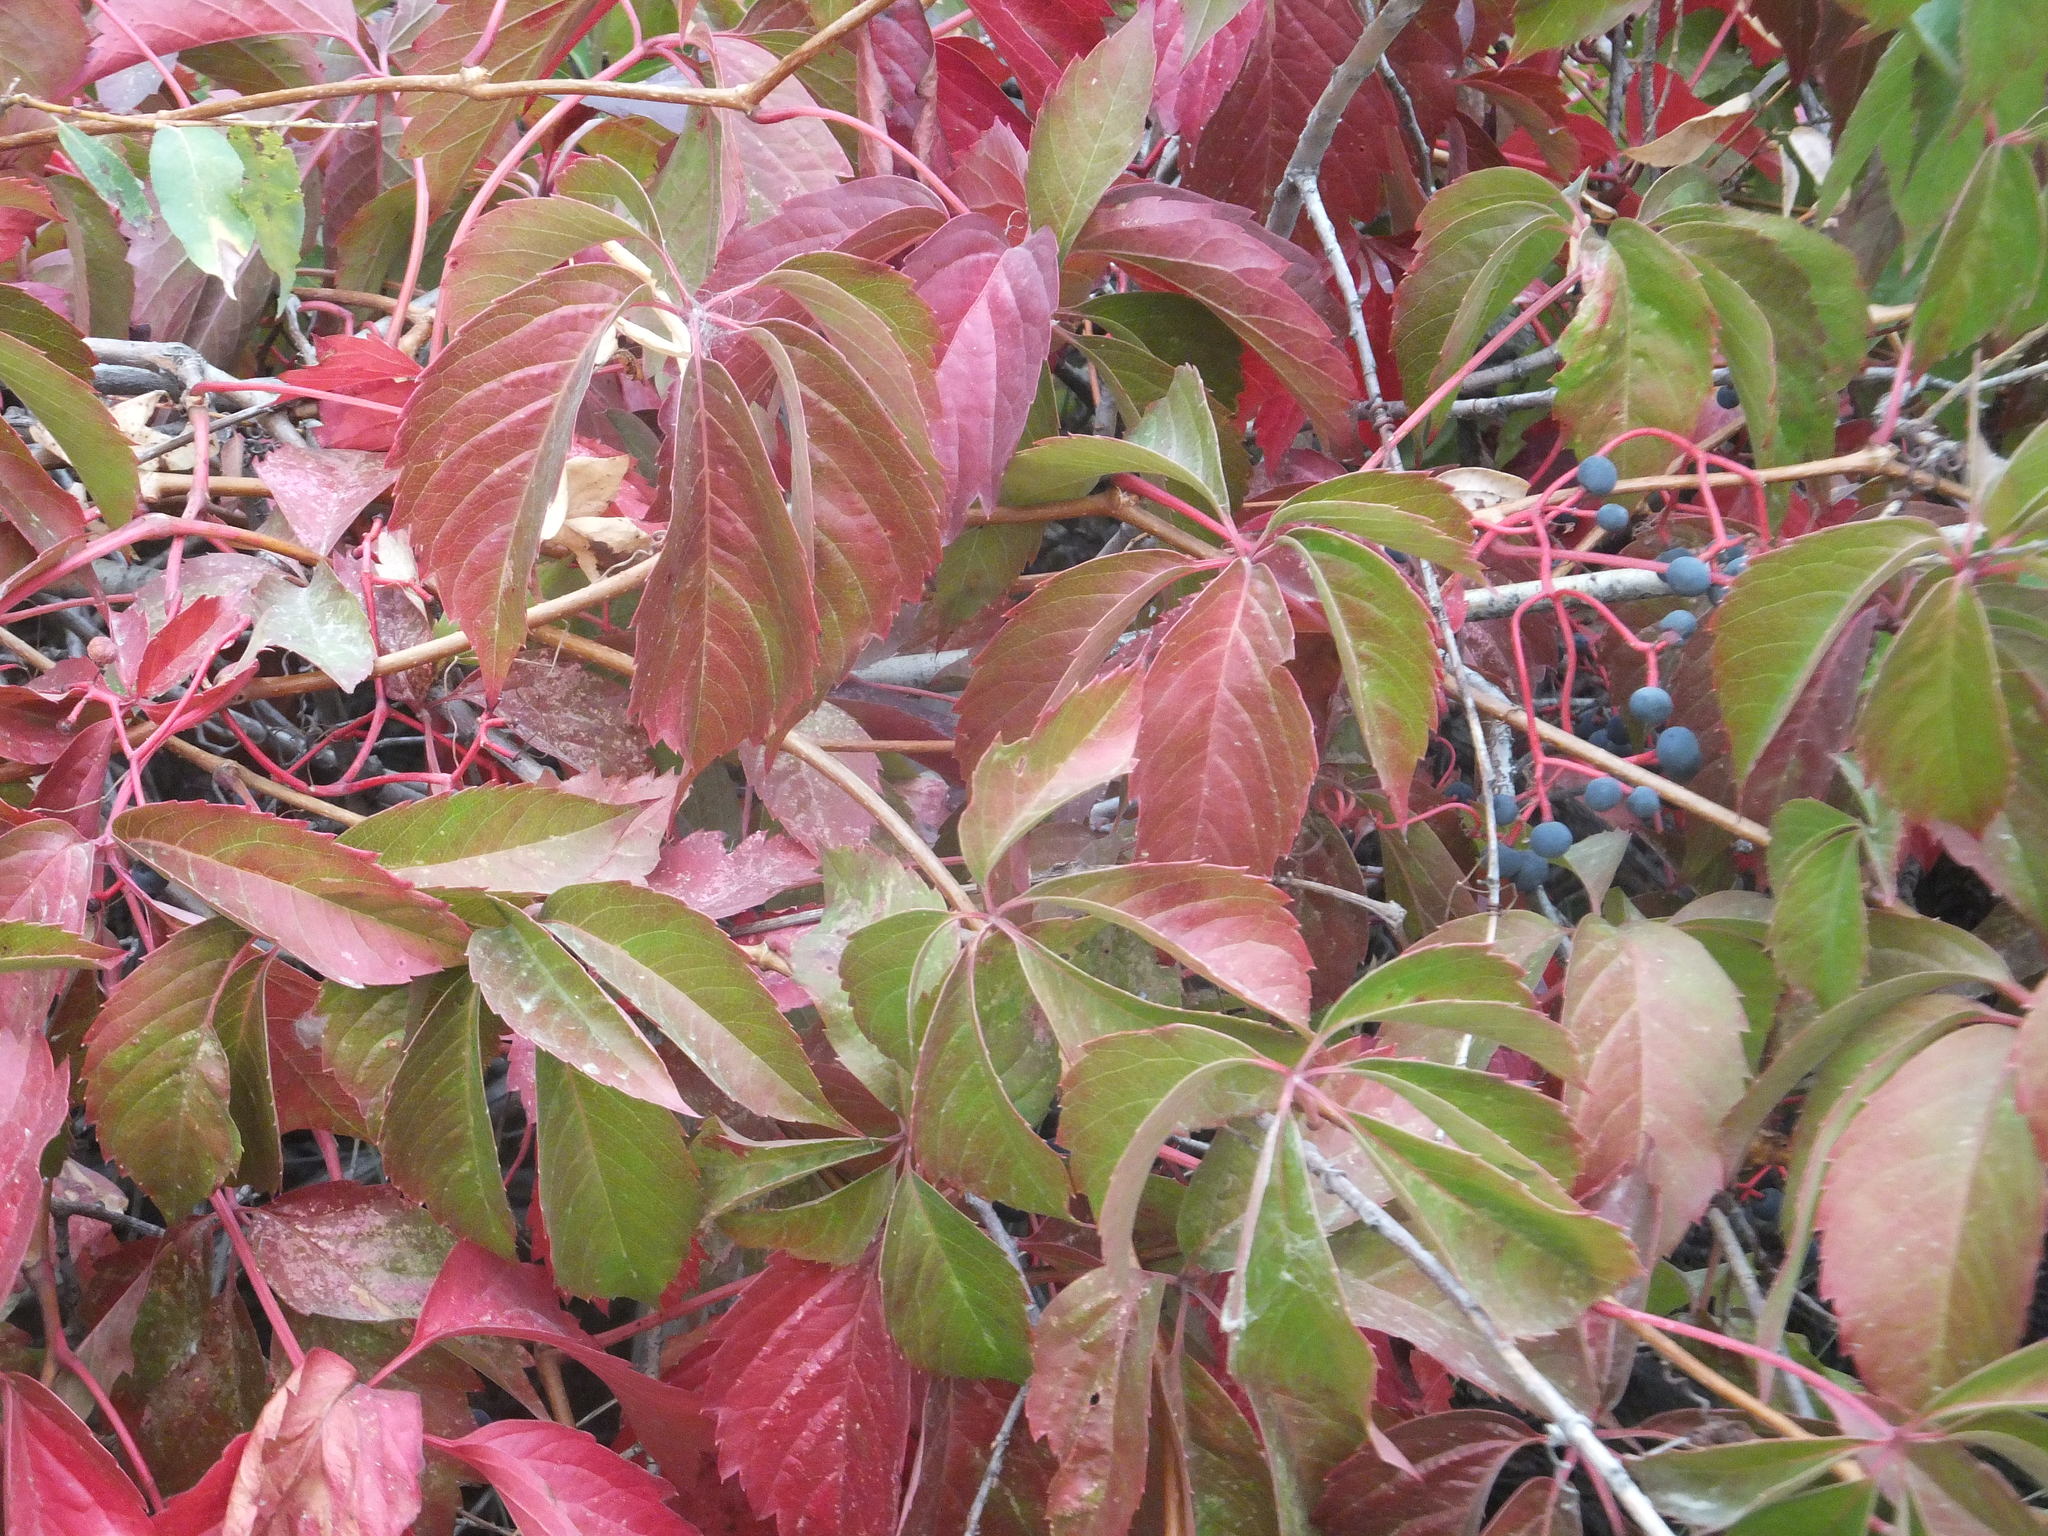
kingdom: Plantae
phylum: Tracheophyta
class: Magnoliopsida
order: Vitales
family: Vitaceae
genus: Parthenocissus
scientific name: Parthenocissus inserta
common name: False virginia-creeper
